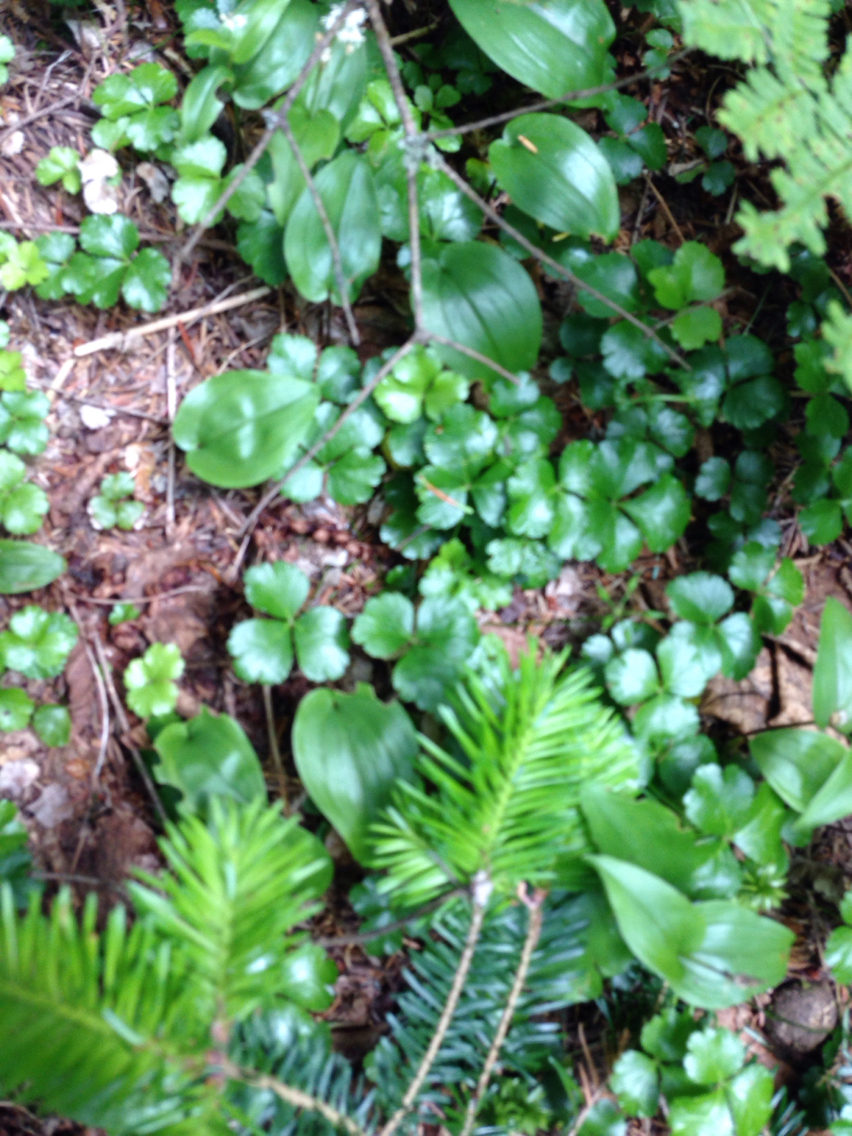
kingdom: Plantae
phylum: Tracheophyta
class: Magnoliopsida
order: Ranunculales
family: Ranunculaceae
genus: Coptis
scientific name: Coptis trifolia
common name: Canker-root
